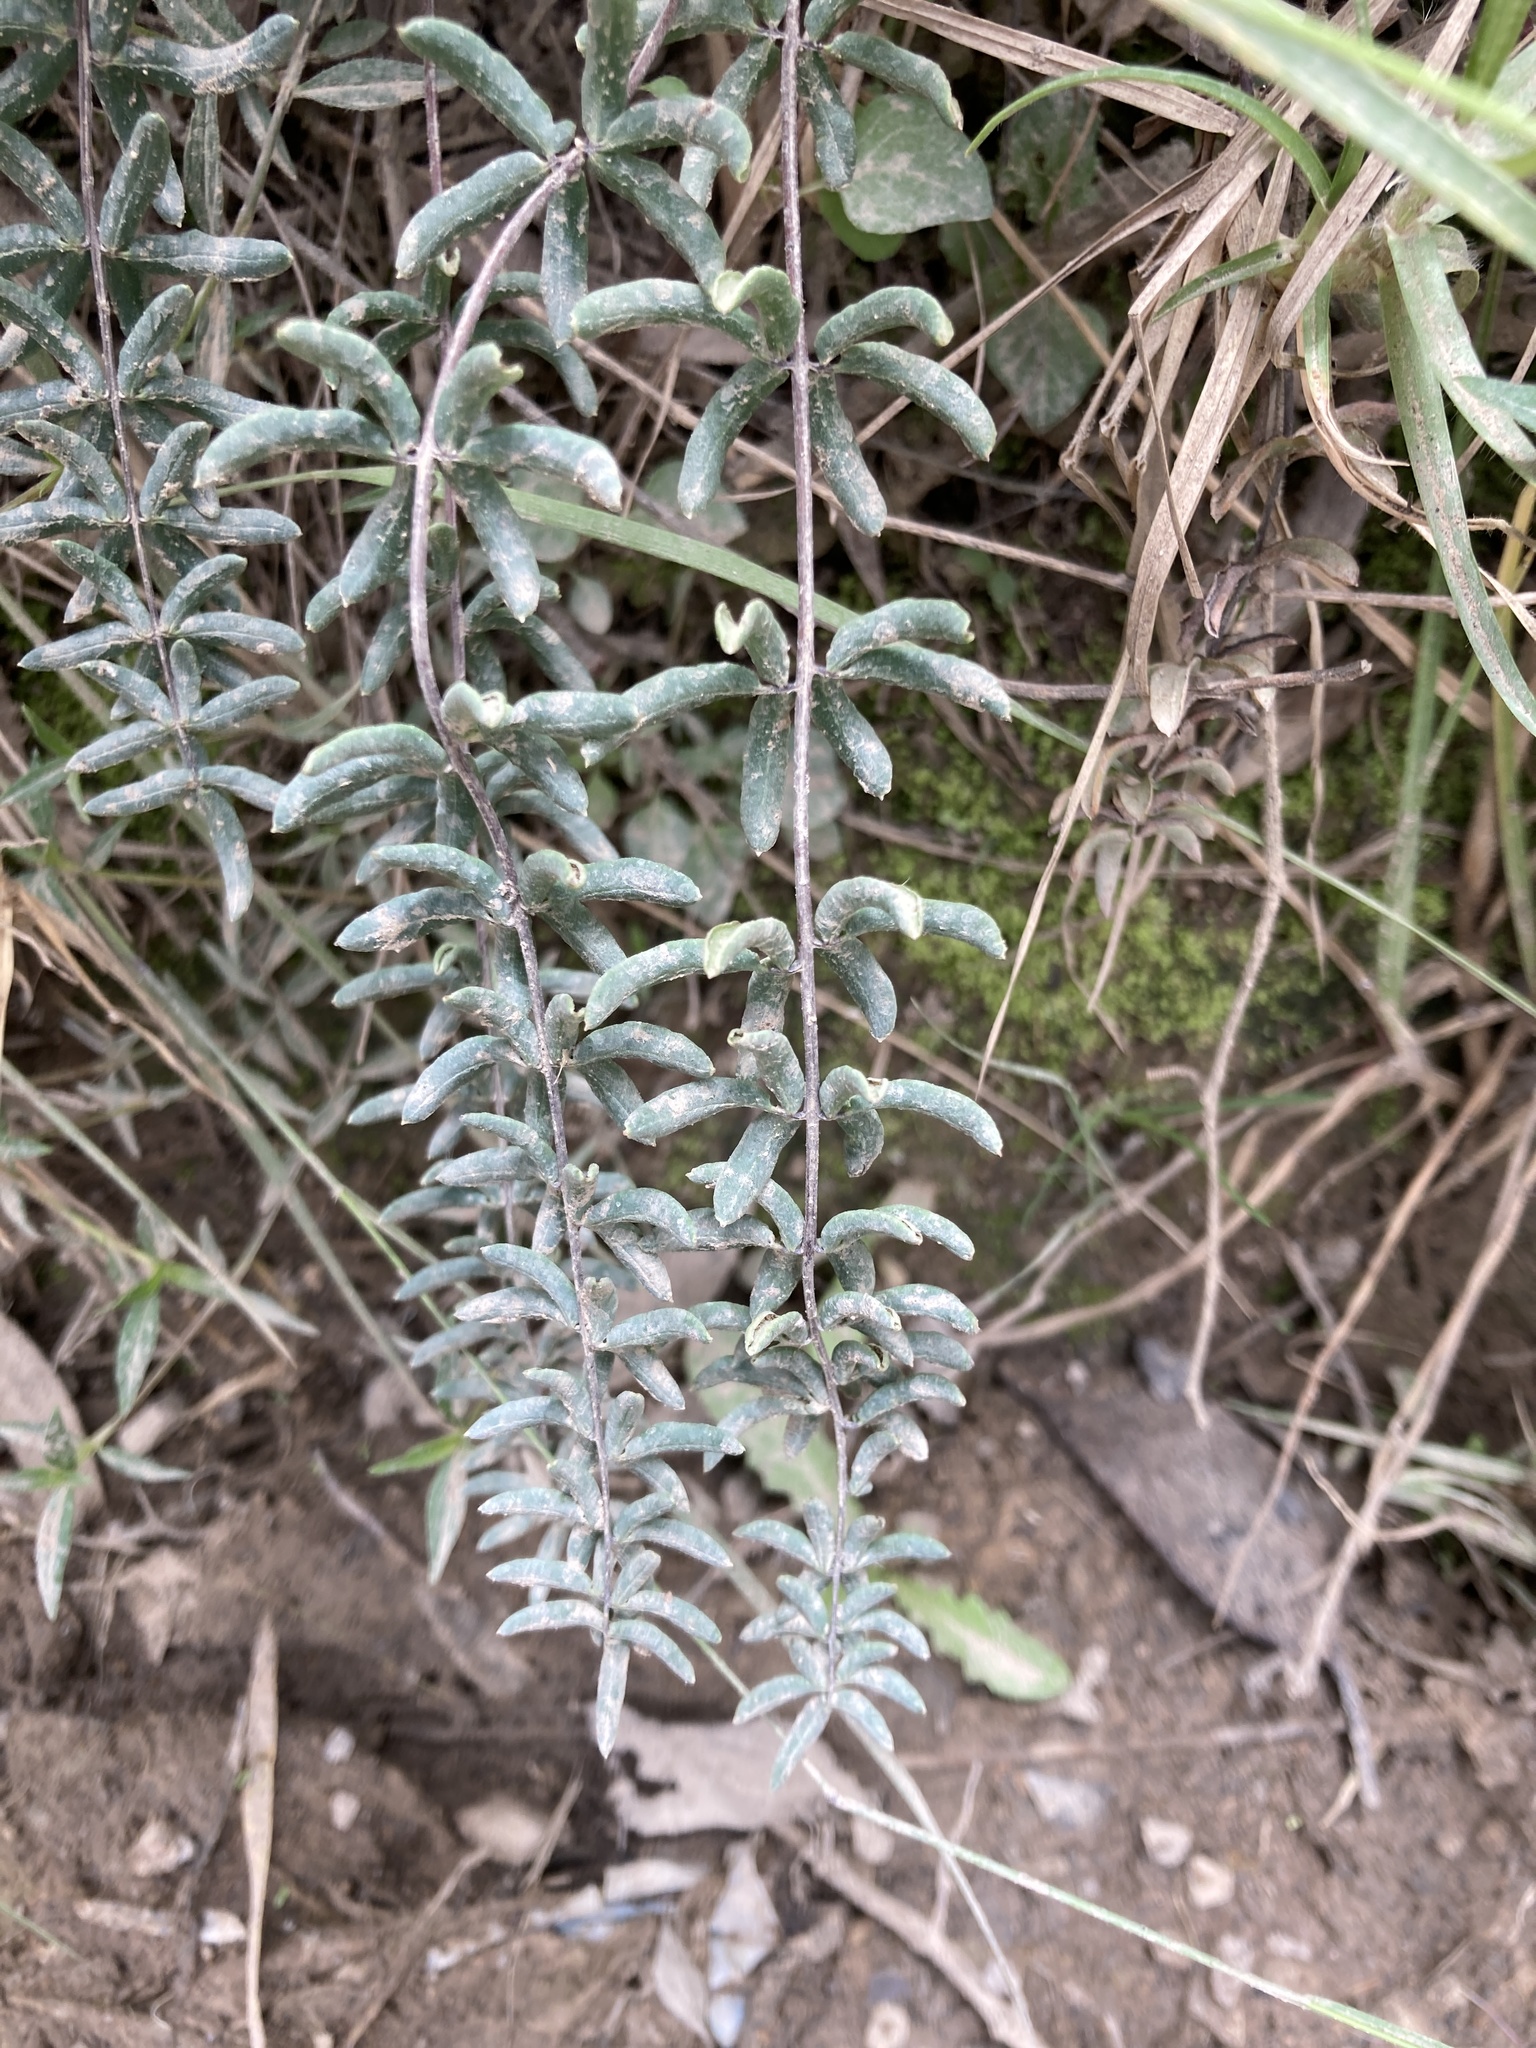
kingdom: Plantae
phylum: Tracheophyta
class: Polypodiopsida
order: Polypodiales
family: Pteridaceae
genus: Pellaea
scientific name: Pellaea ternifolia
